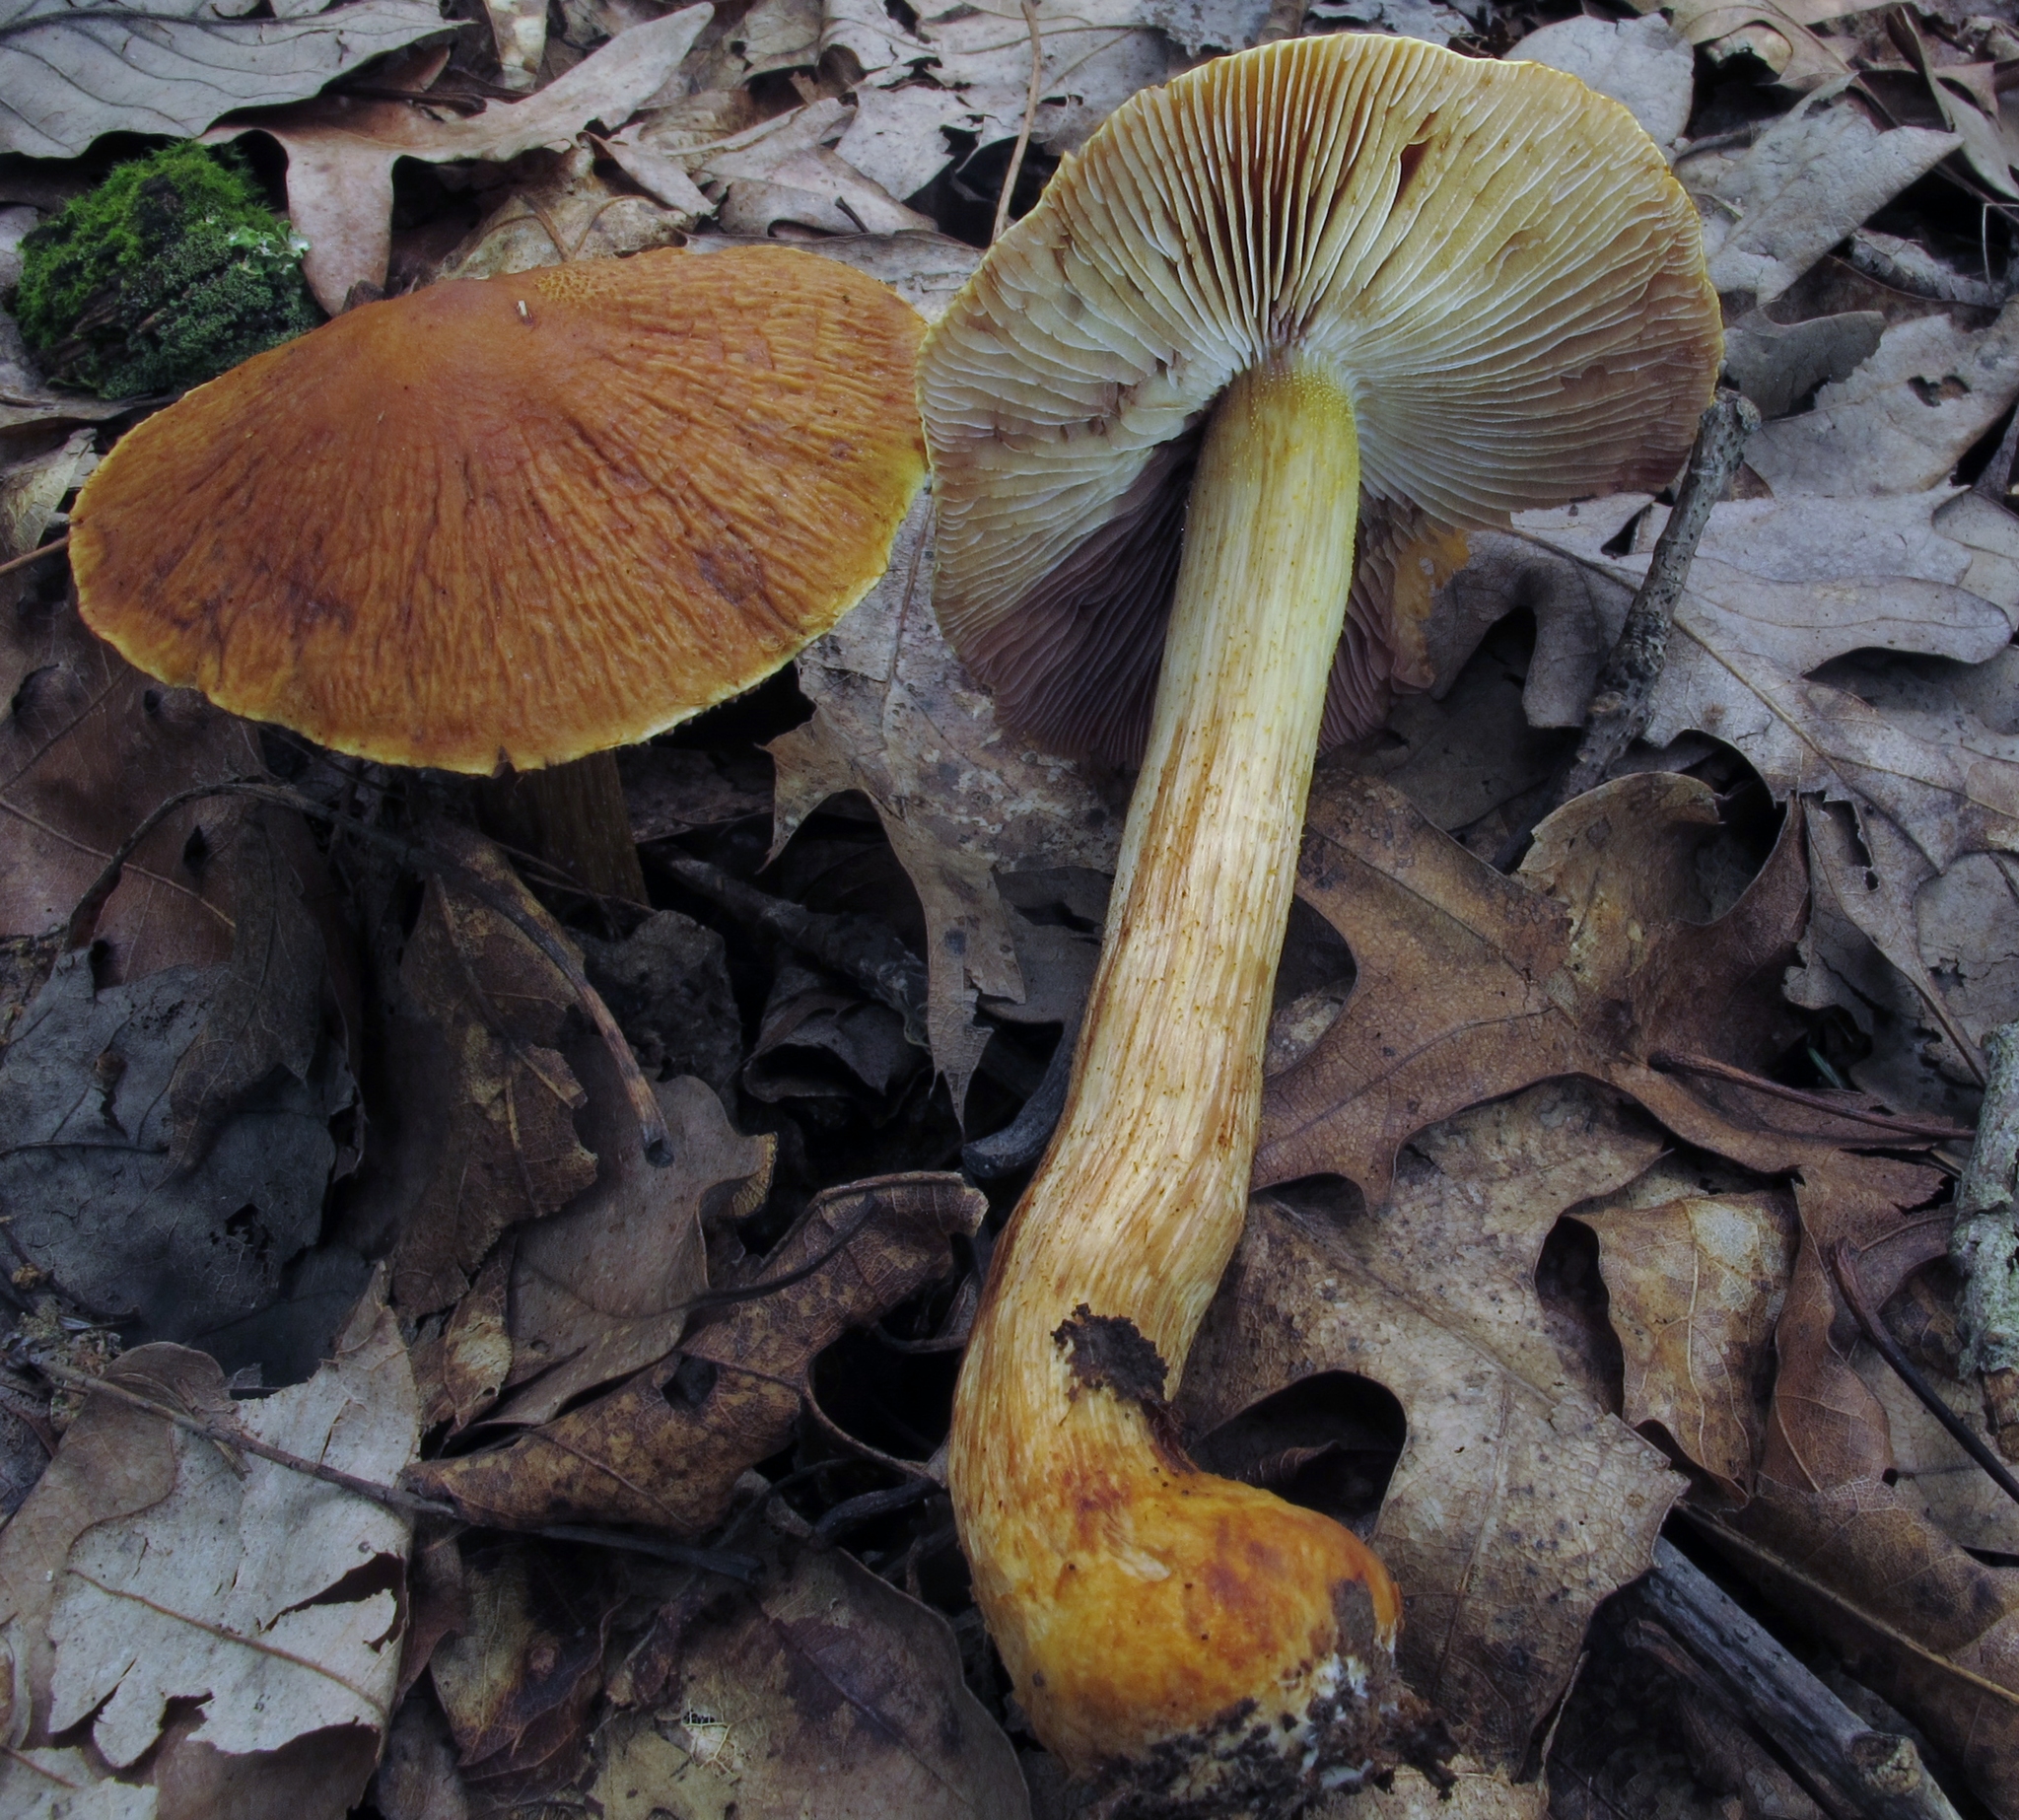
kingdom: Fungi
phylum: Basidiomycota
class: Agaricomycetes
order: Agaricales
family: Cortinariaceae
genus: Cortinarius
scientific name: Cortinarius corrugatus
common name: Wrinkled cortinarius
